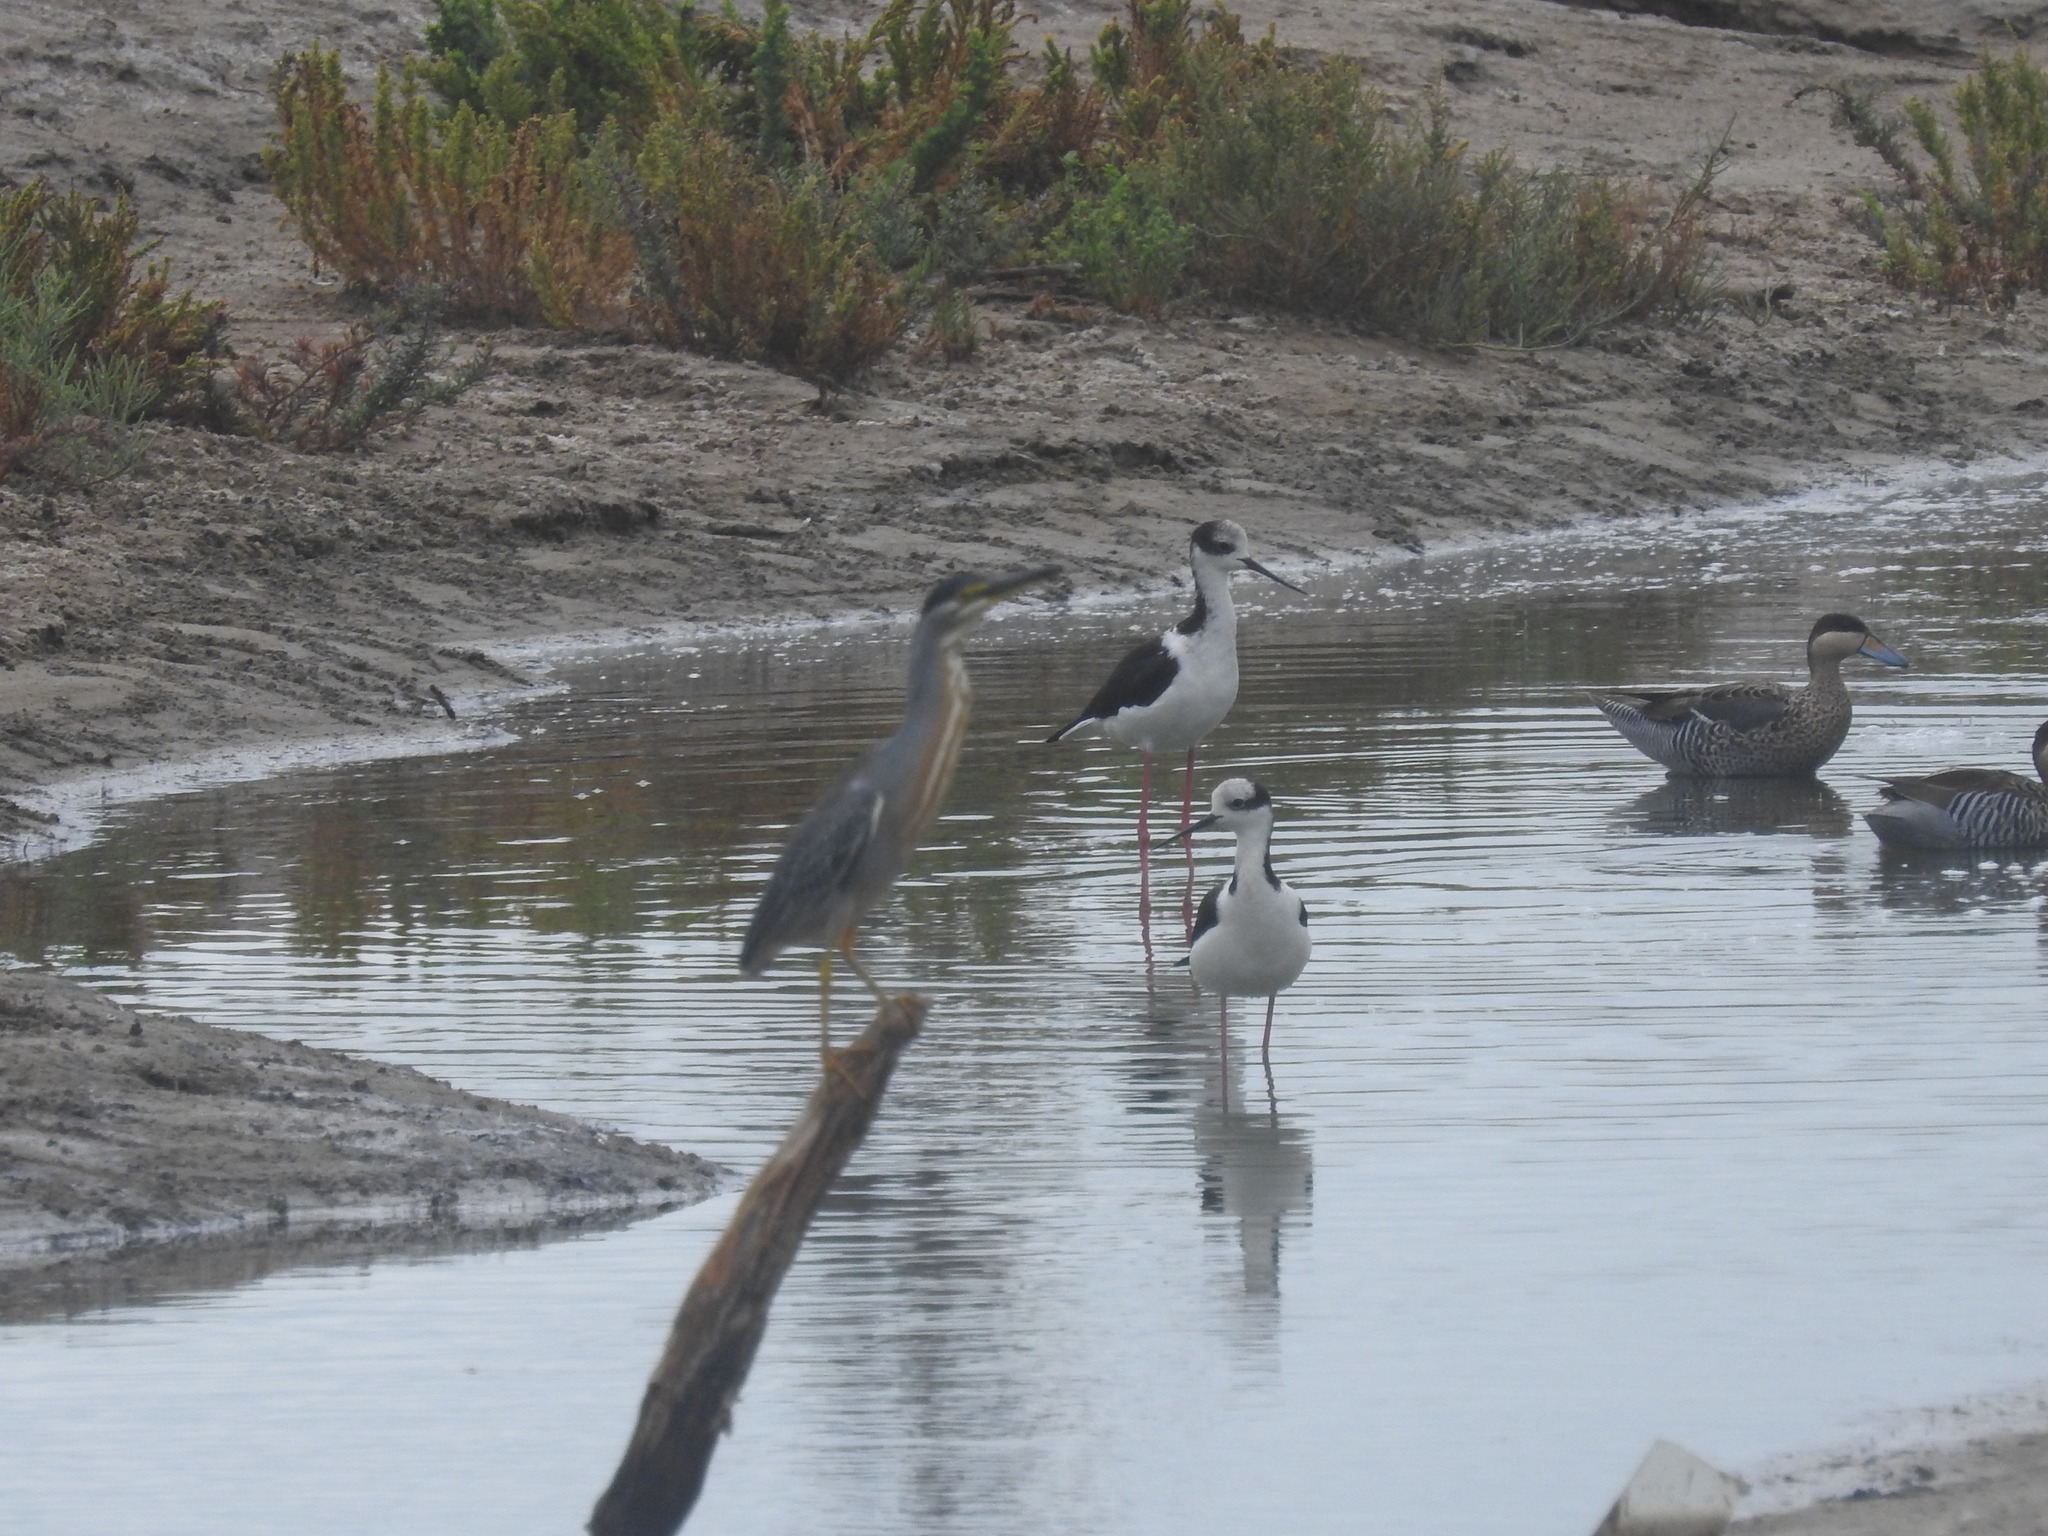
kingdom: Animalia
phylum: Chordata
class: Aves
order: Charadriiformes
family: Recurvirostridae
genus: Himantopus
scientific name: Himantopus mexicanus
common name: Black-necked stilt
